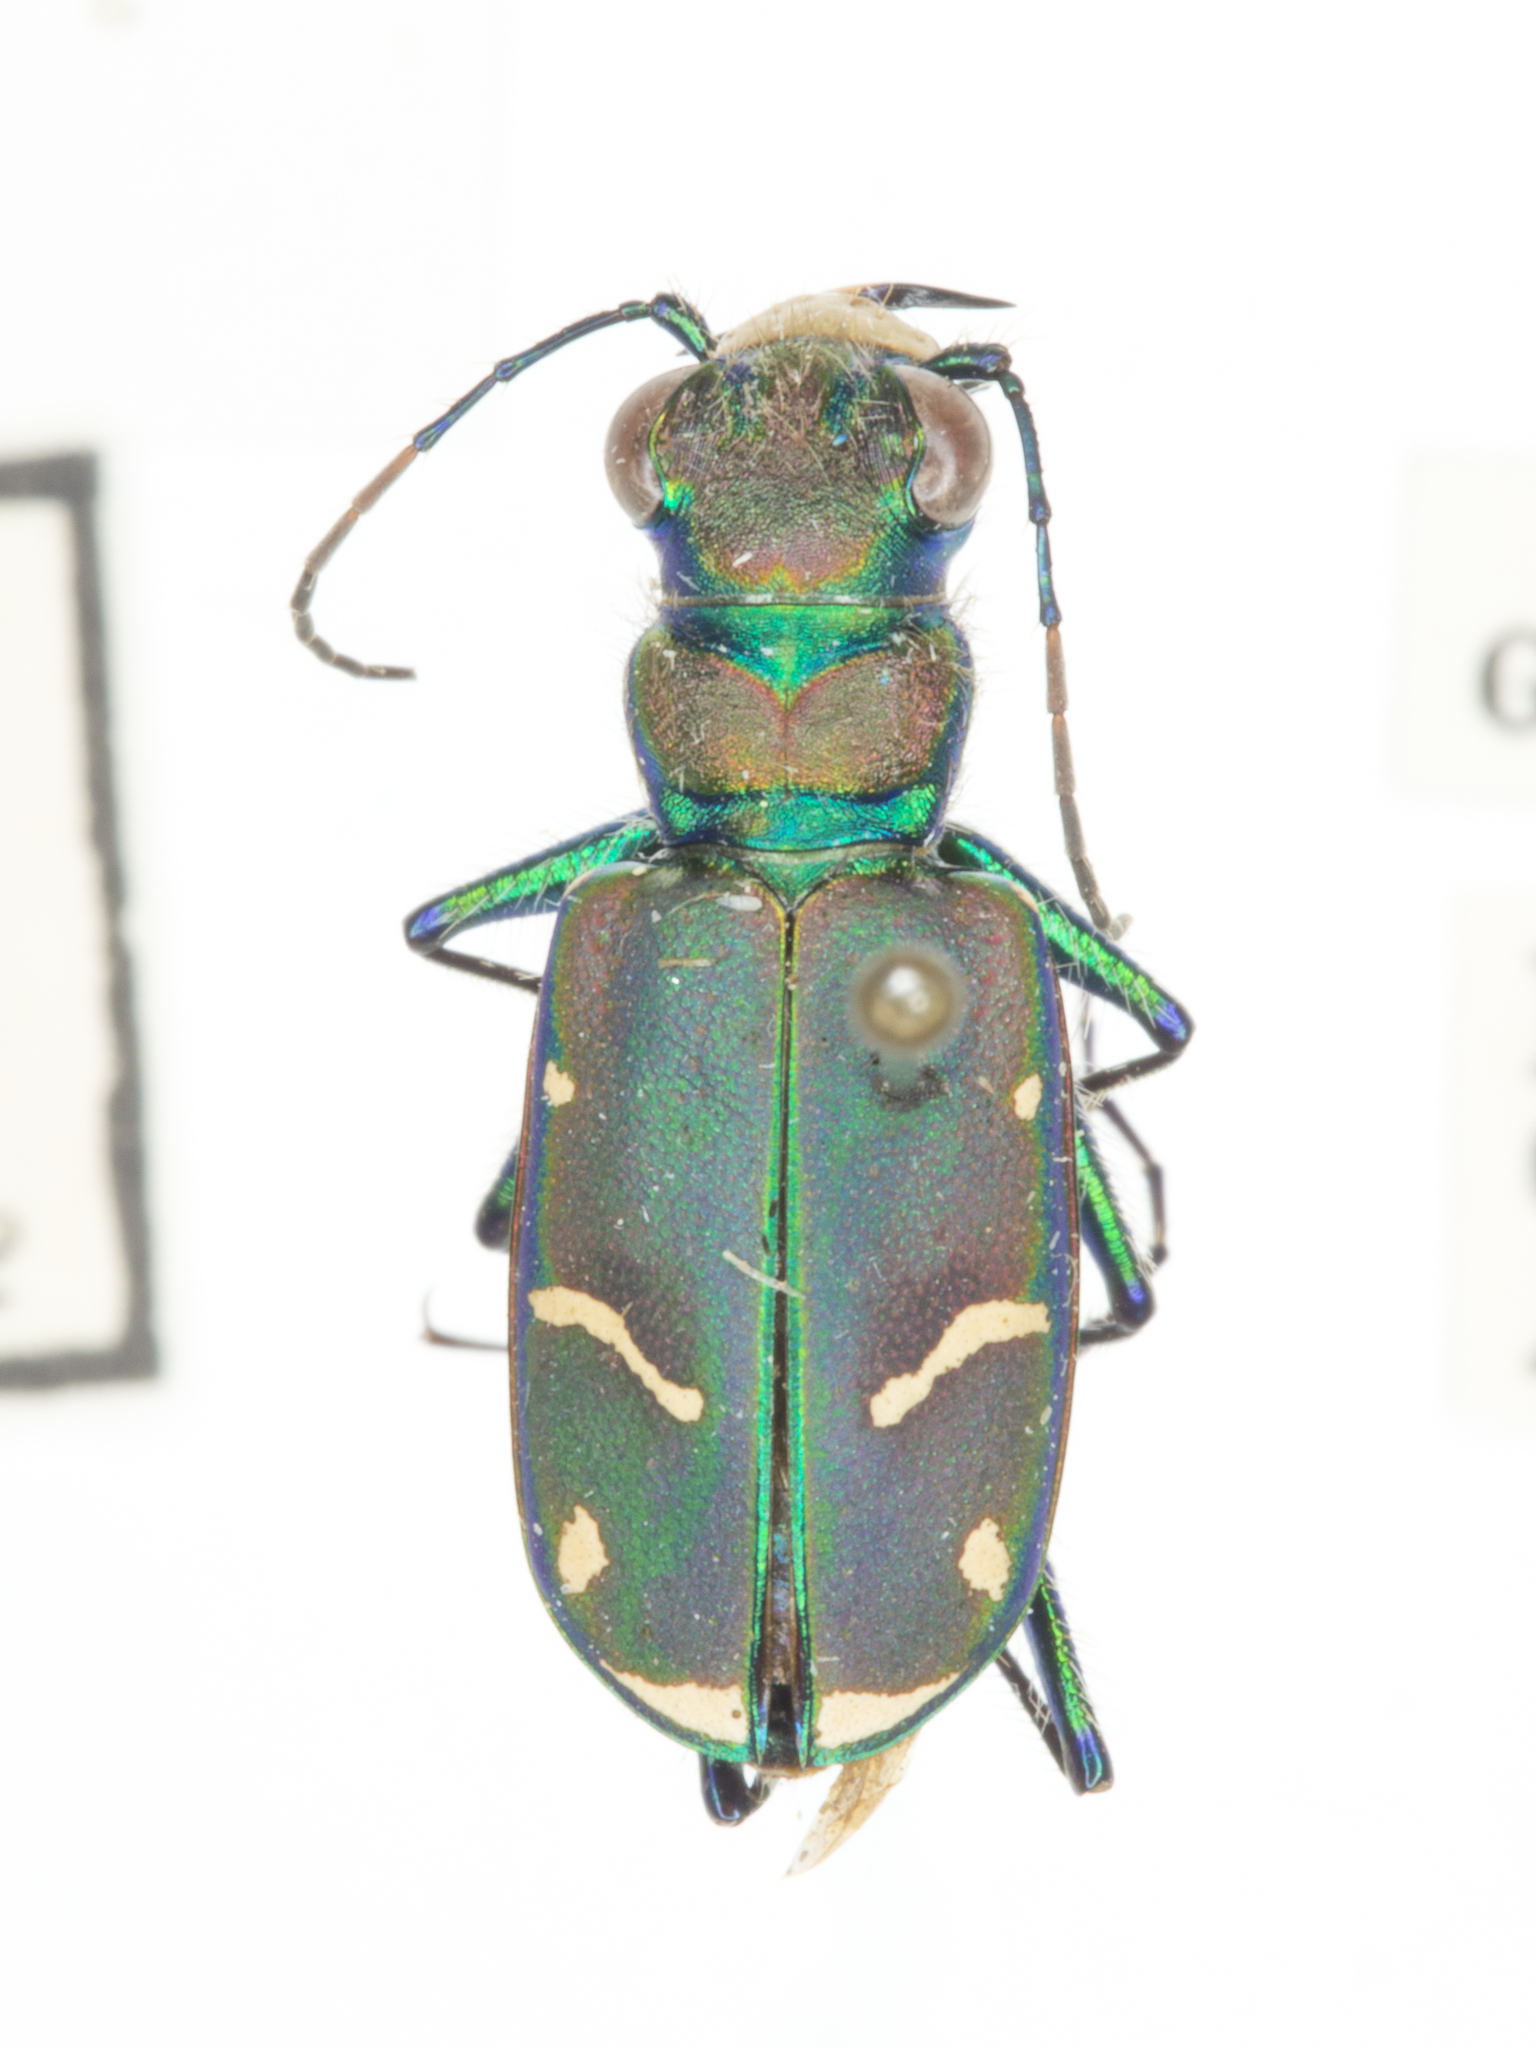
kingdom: Animalia
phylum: Arthropoda
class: Insecta
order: Coleoptera
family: Carabidae
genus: Cicindela
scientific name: Cicindela purpurea
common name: Cow path tiger beetle
